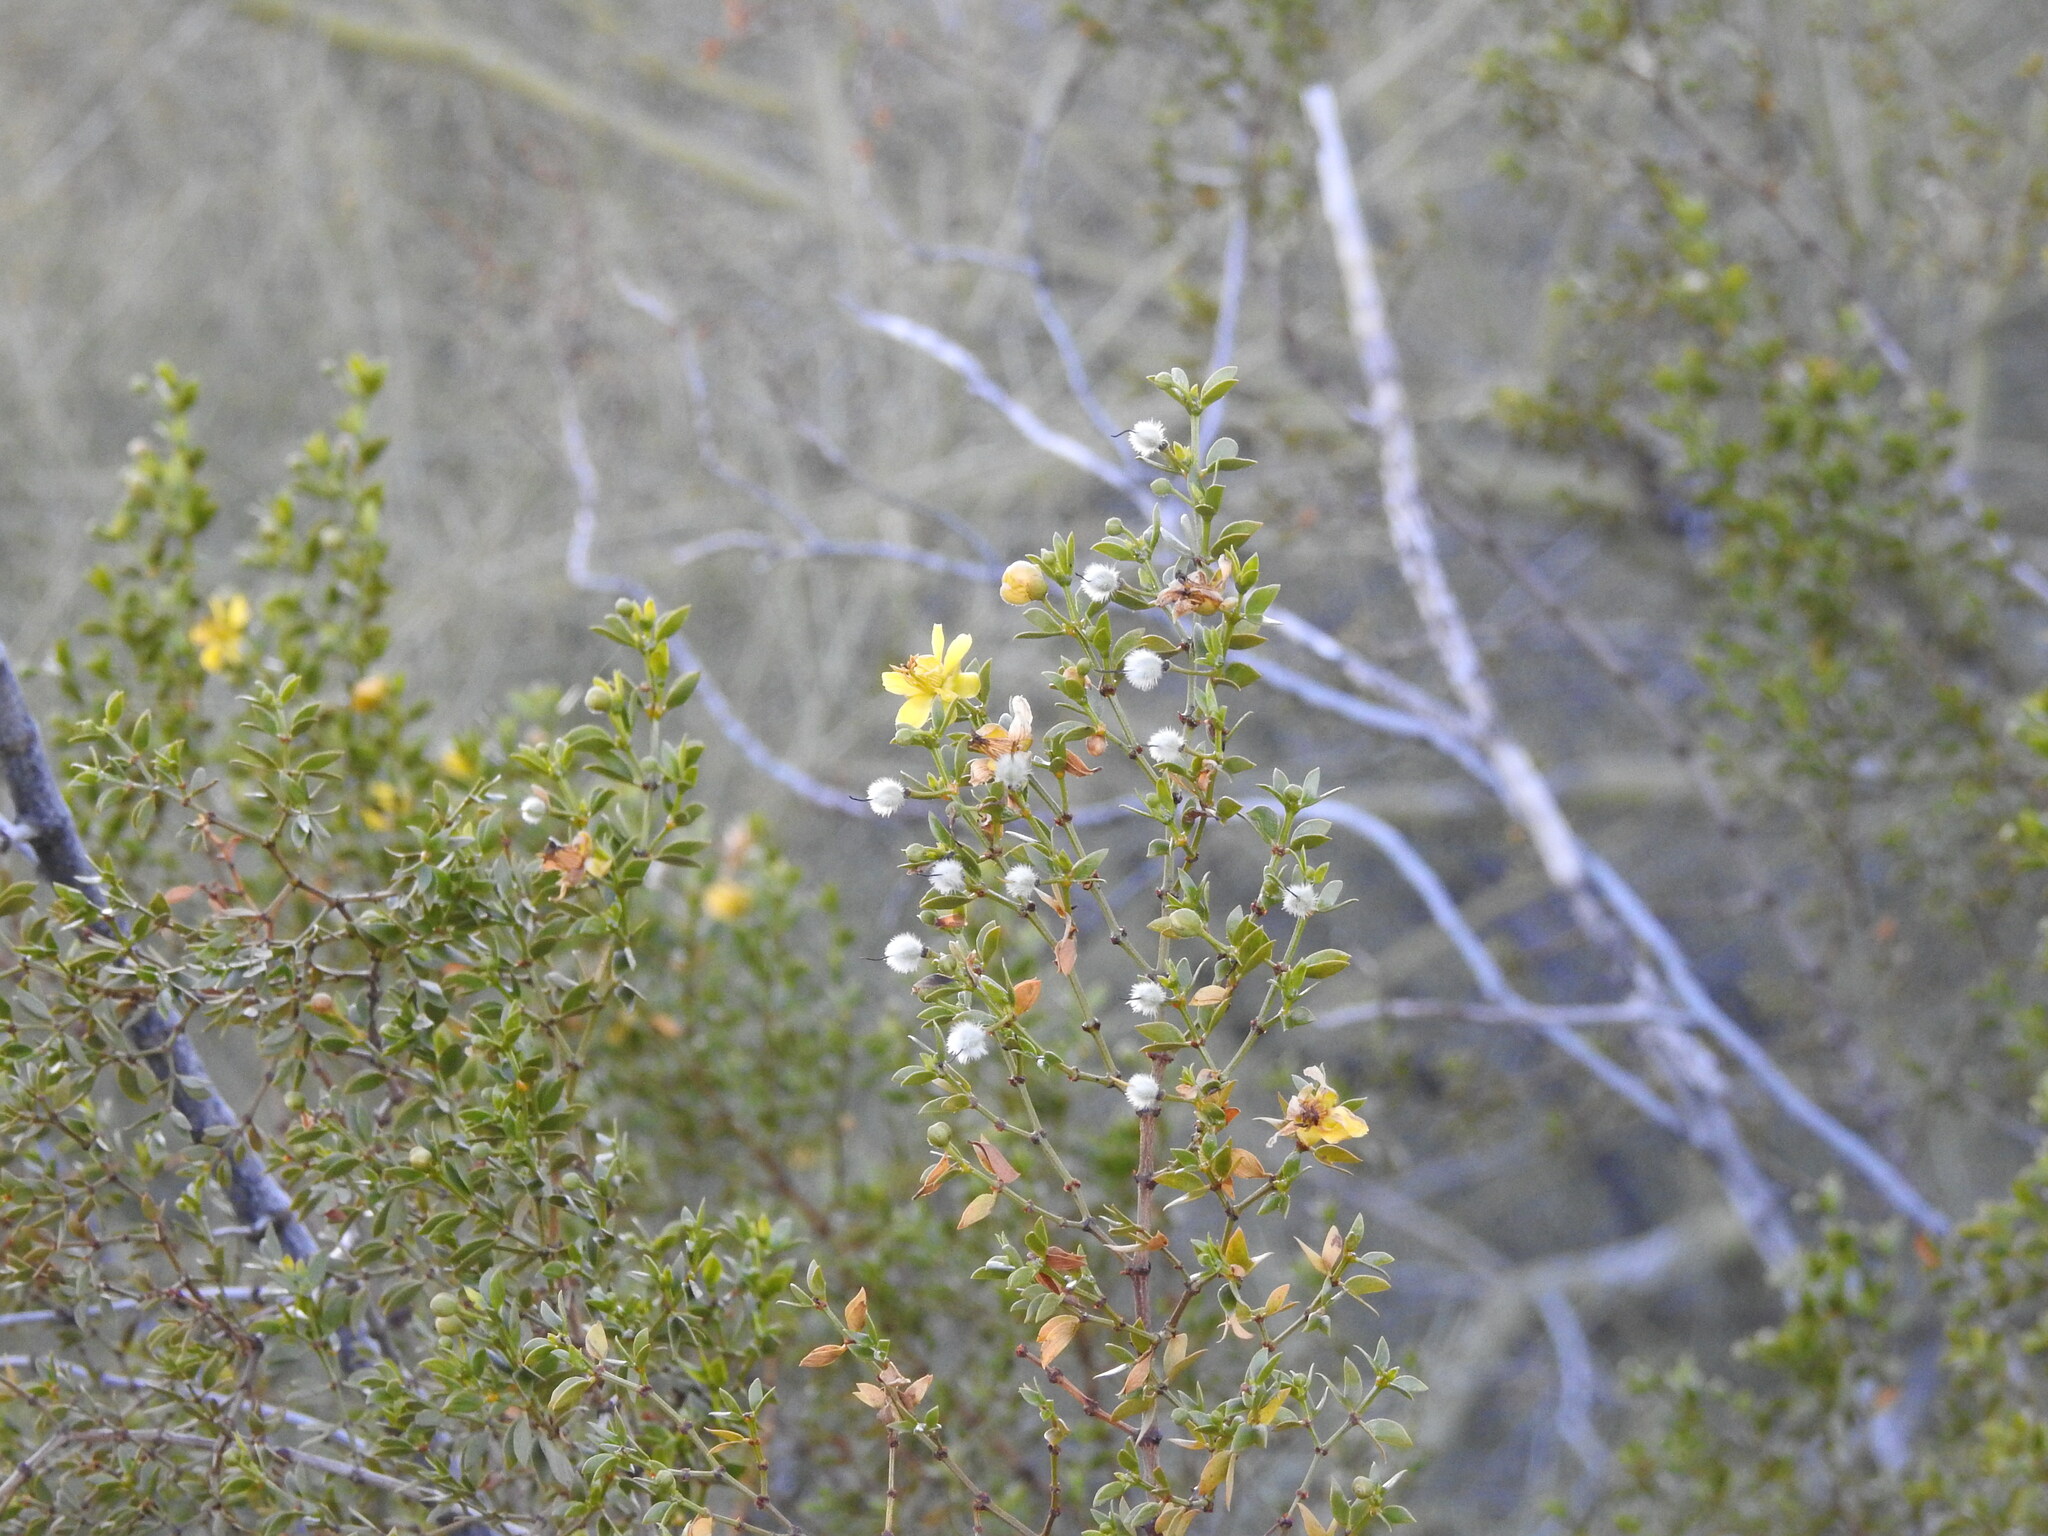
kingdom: Plantae
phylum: Tracheophyta
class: Magnoliopsida
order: Zygophyllales
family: Zygophyllaceae
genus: Larrea
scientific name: Larrea tridentata
